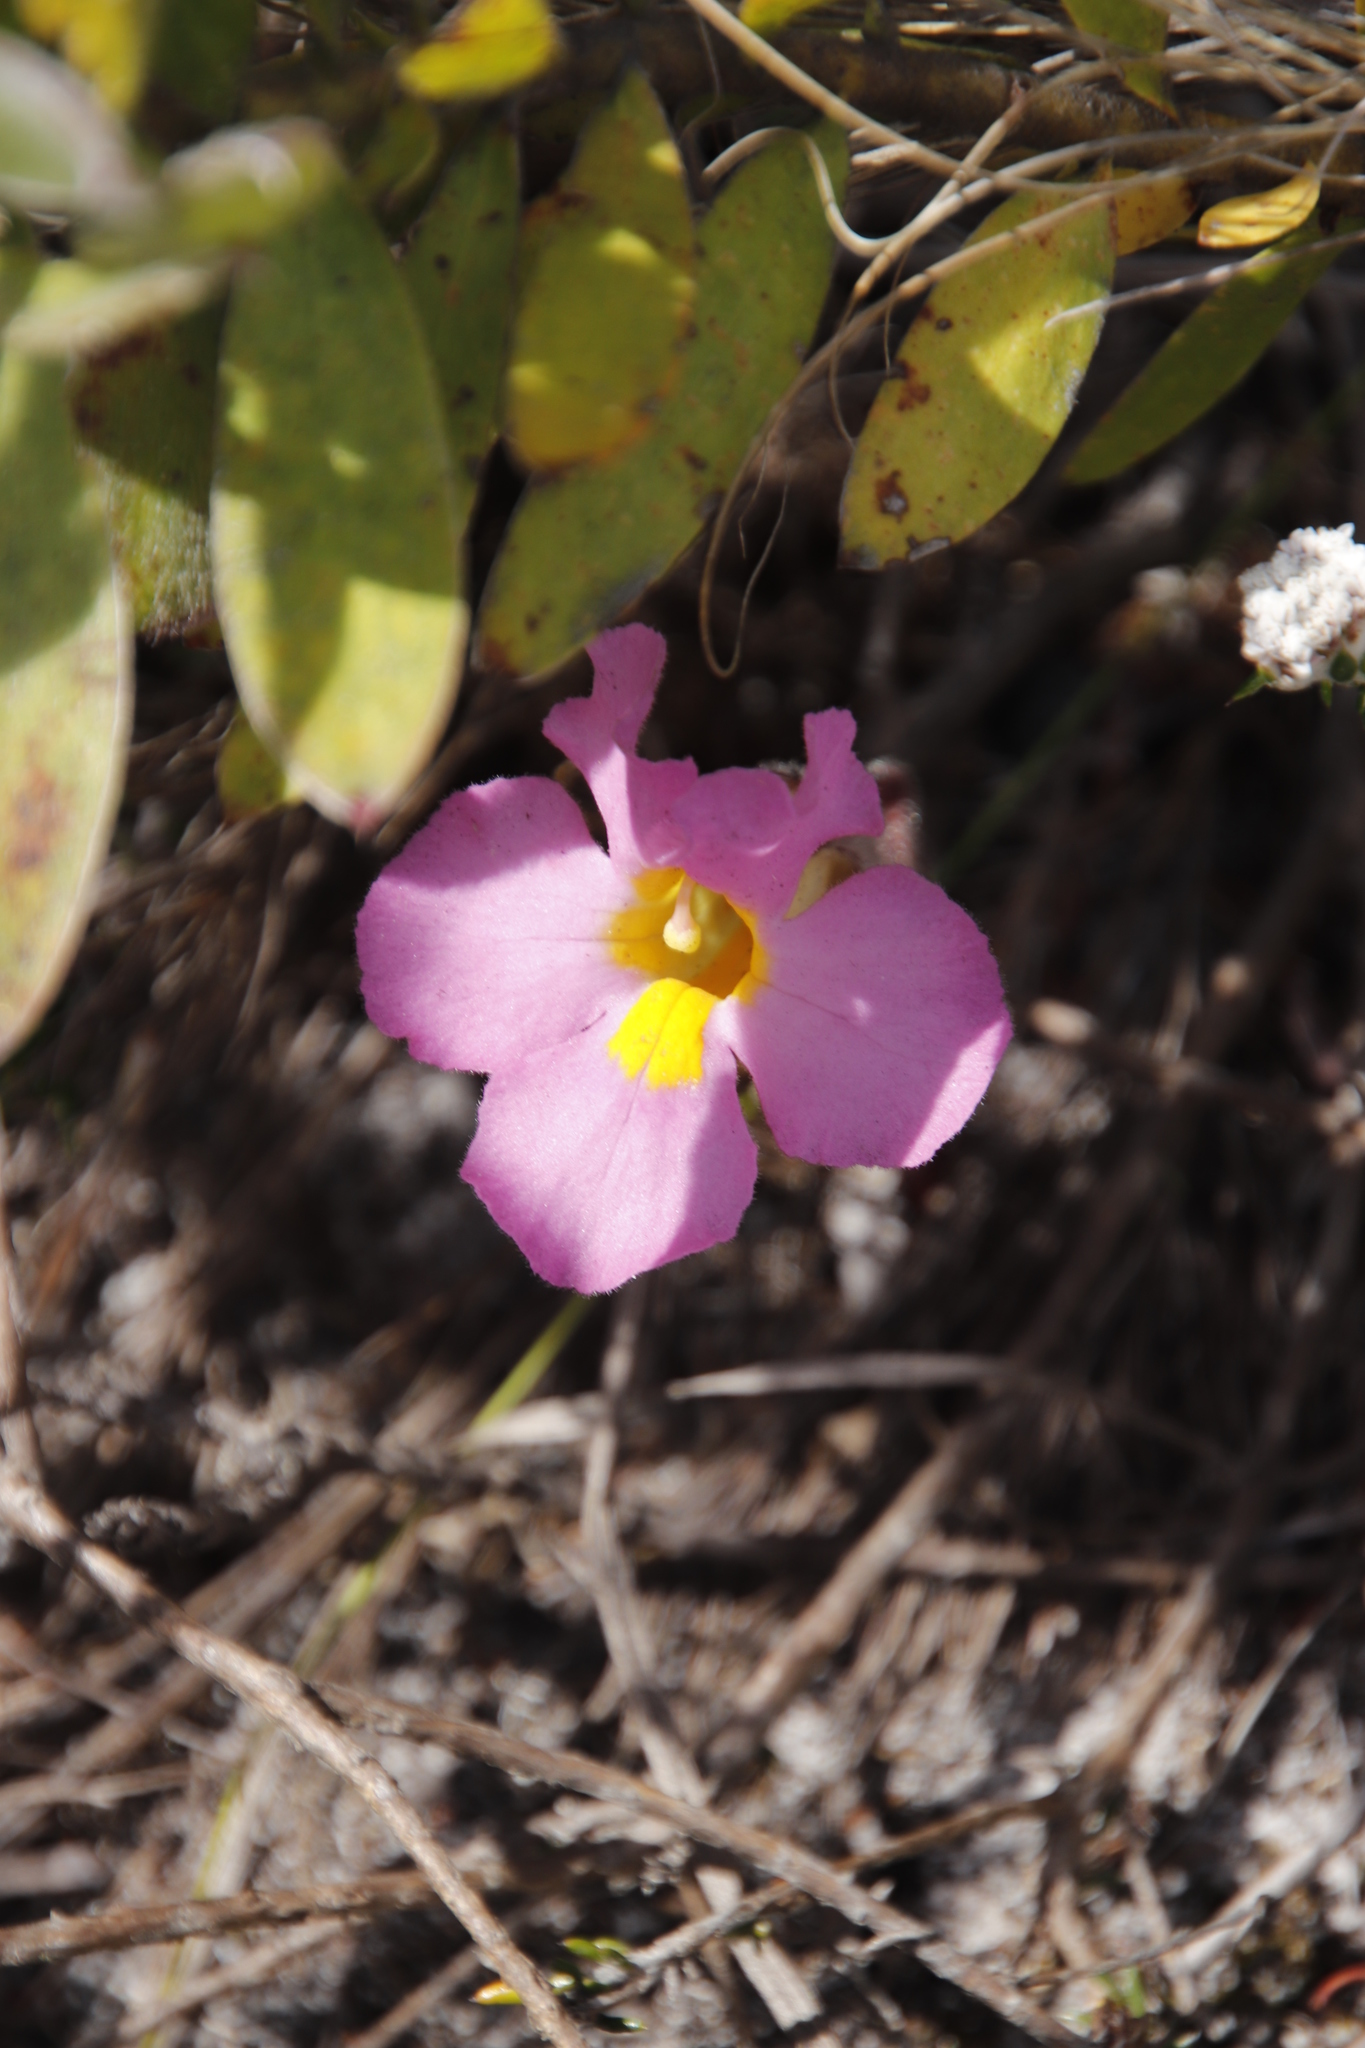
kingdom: Plantae
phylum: Tracheophyta
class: Magnoliopsida
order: Lamiales
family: Orobanchaceae
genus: Harveya
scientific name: Harveya purpurea
